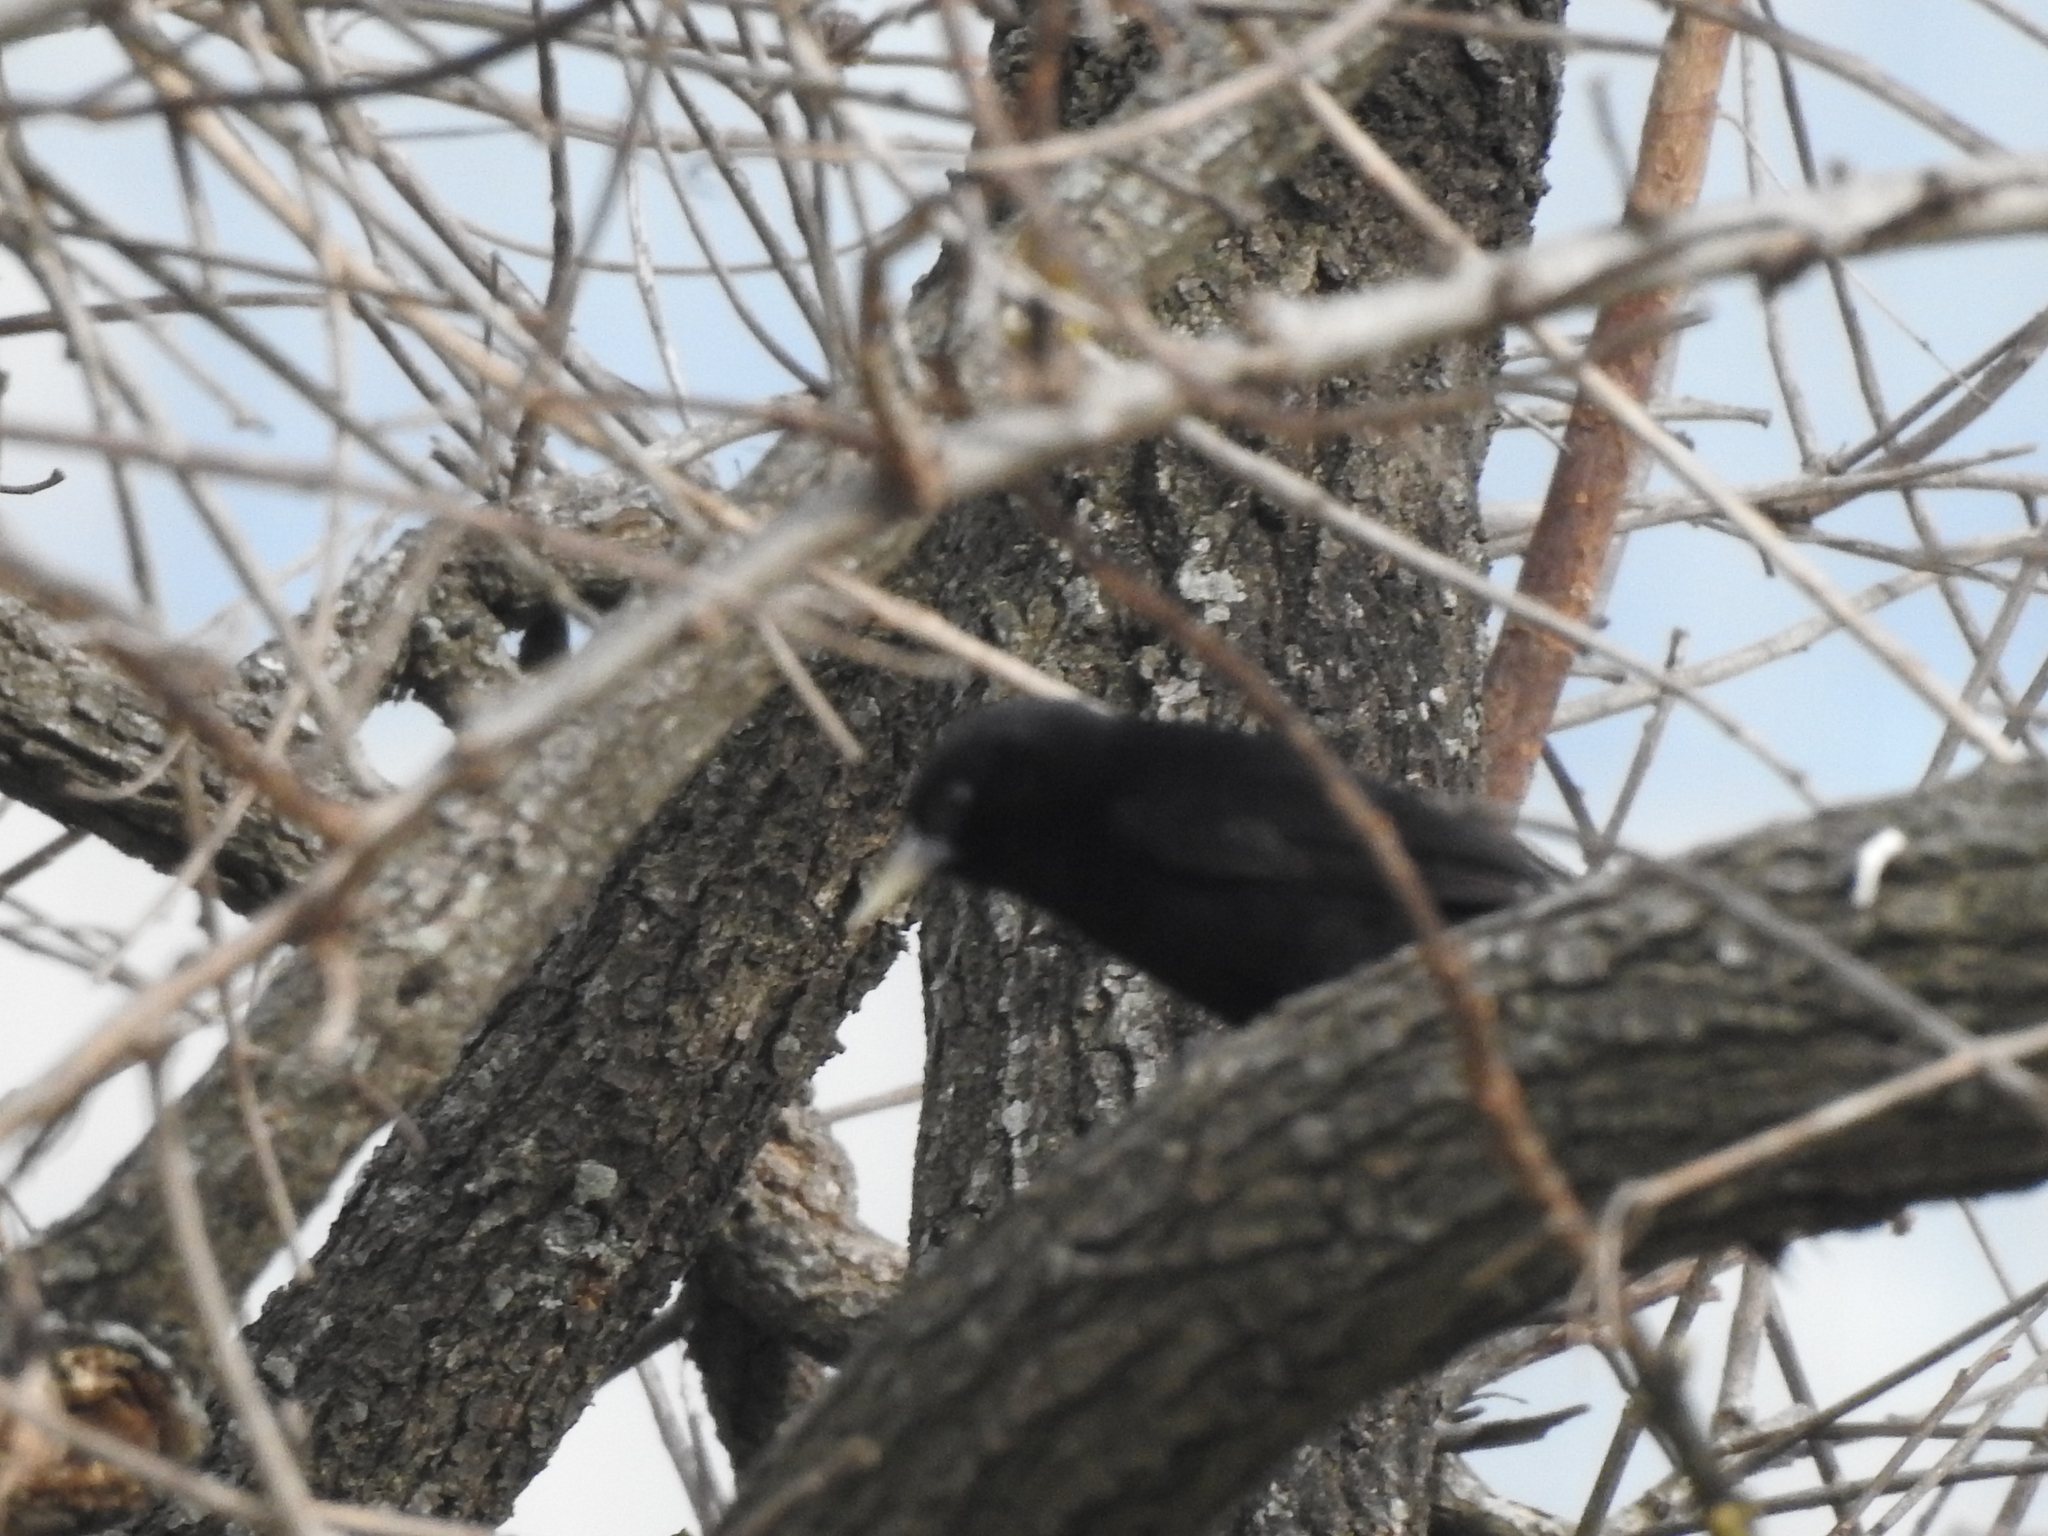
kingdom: Animalia
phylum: Chordata
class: Aves
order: Passeriformes
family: Icteridae
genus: Cacicus
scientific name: Cacicus solitarius
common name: Solitary cacique
